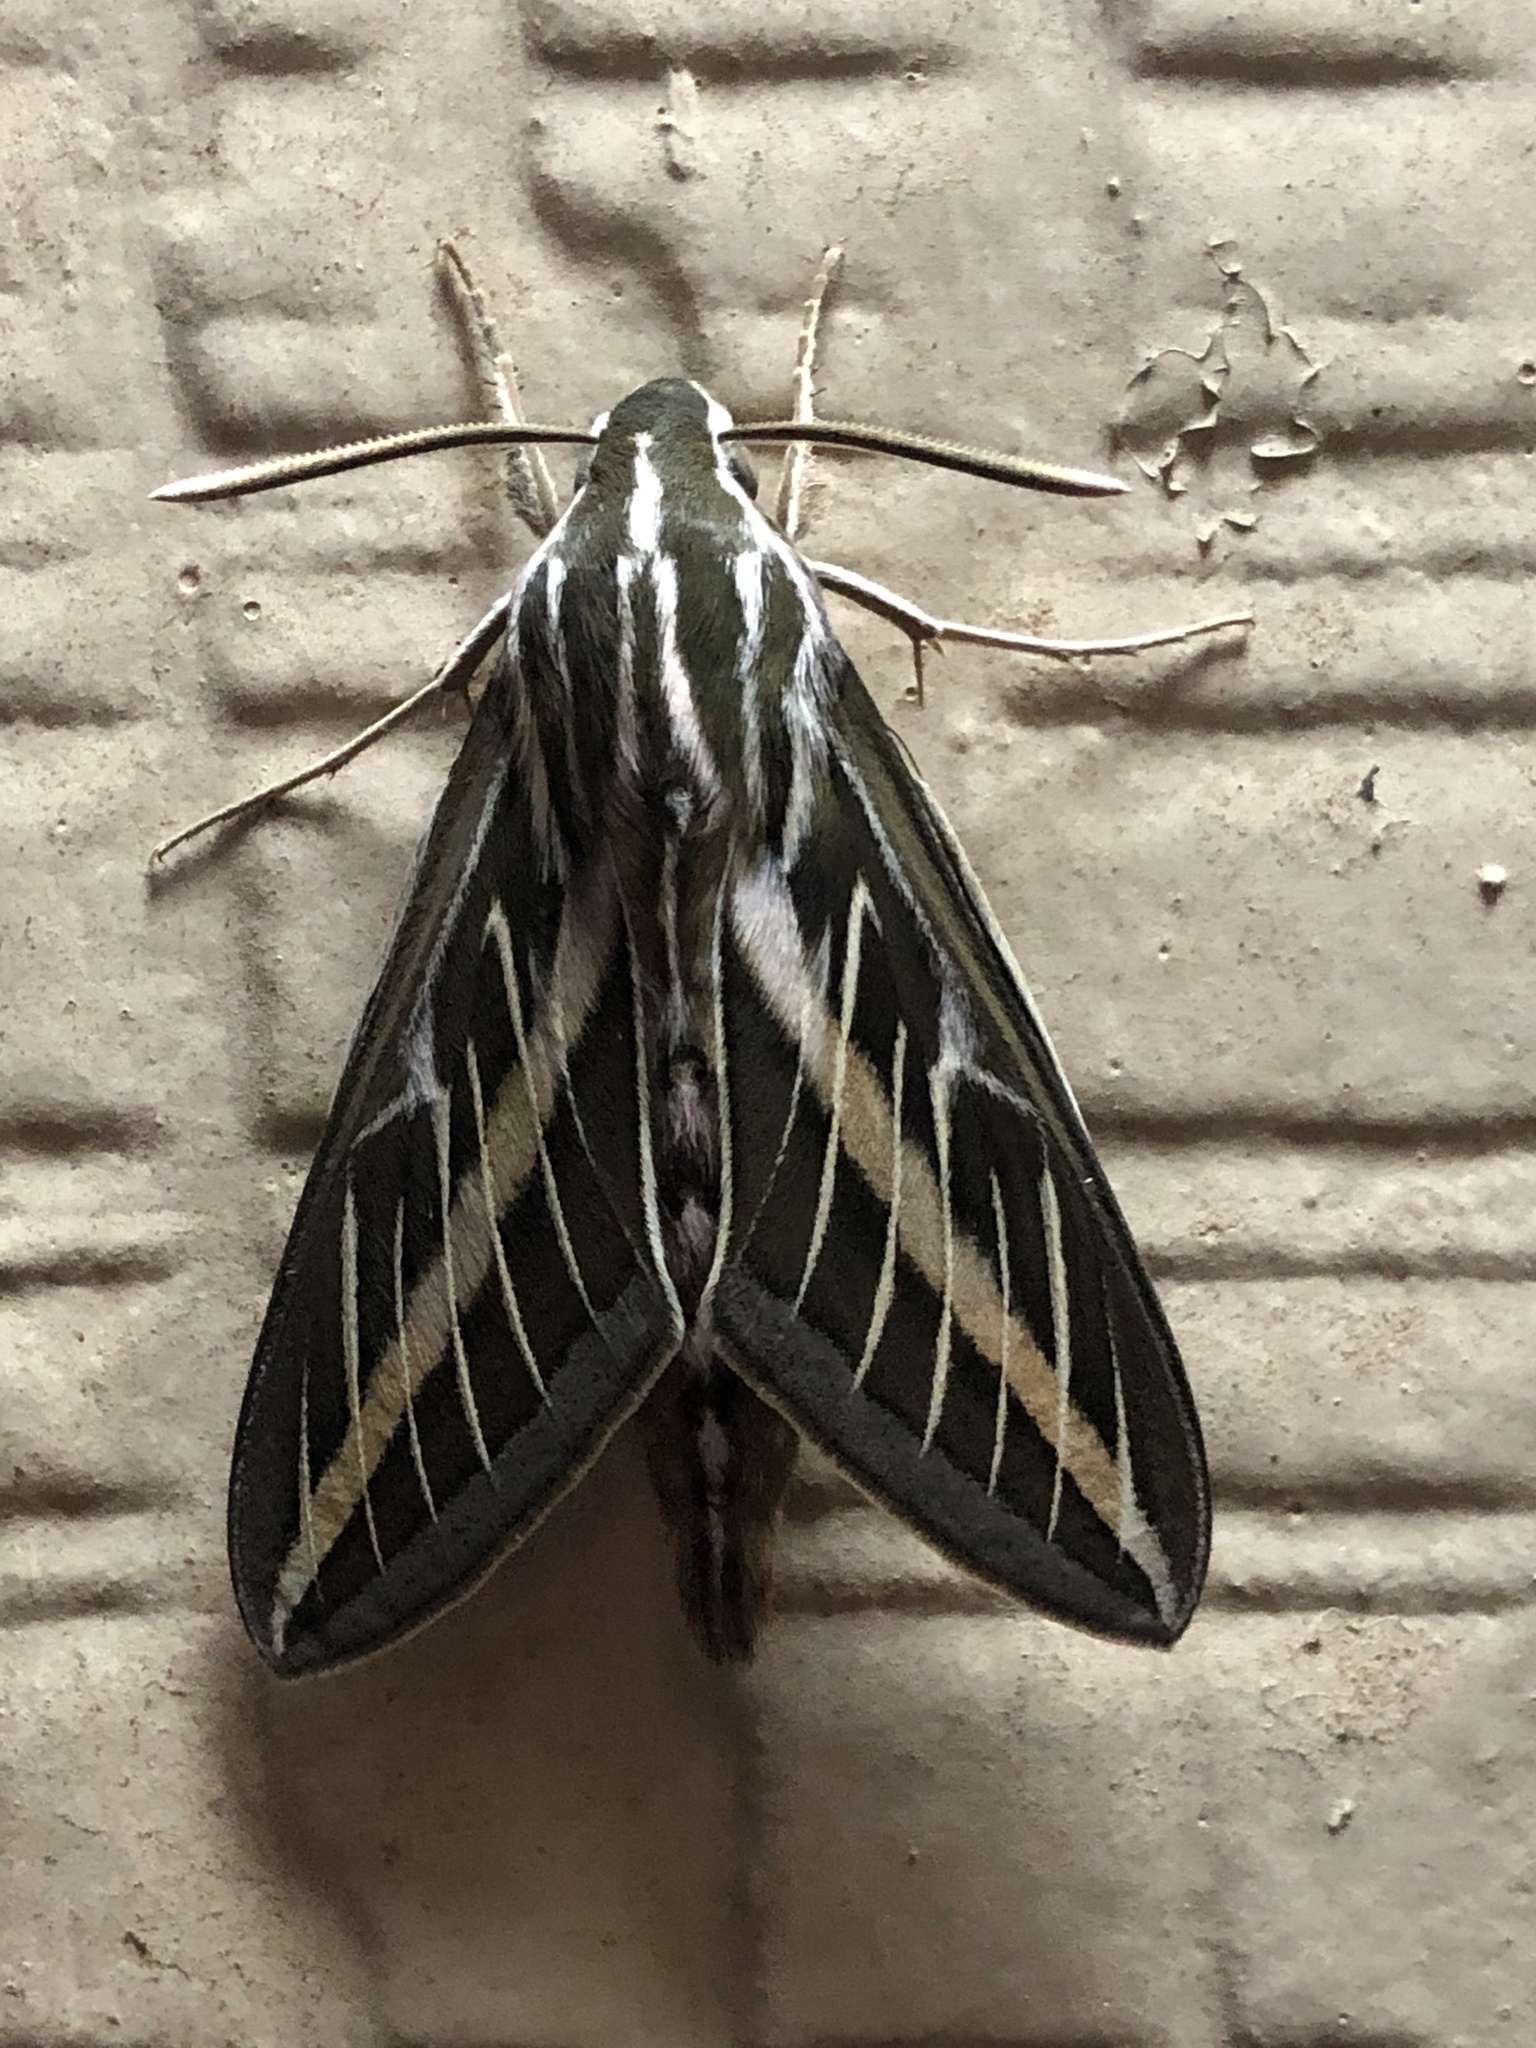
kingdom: Animalia
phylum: Arthropoda
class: Insecta
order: Lepidoptera
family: Sphingidae
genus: Hyles
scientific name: Hyles lineata
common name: White-lined sphinx
